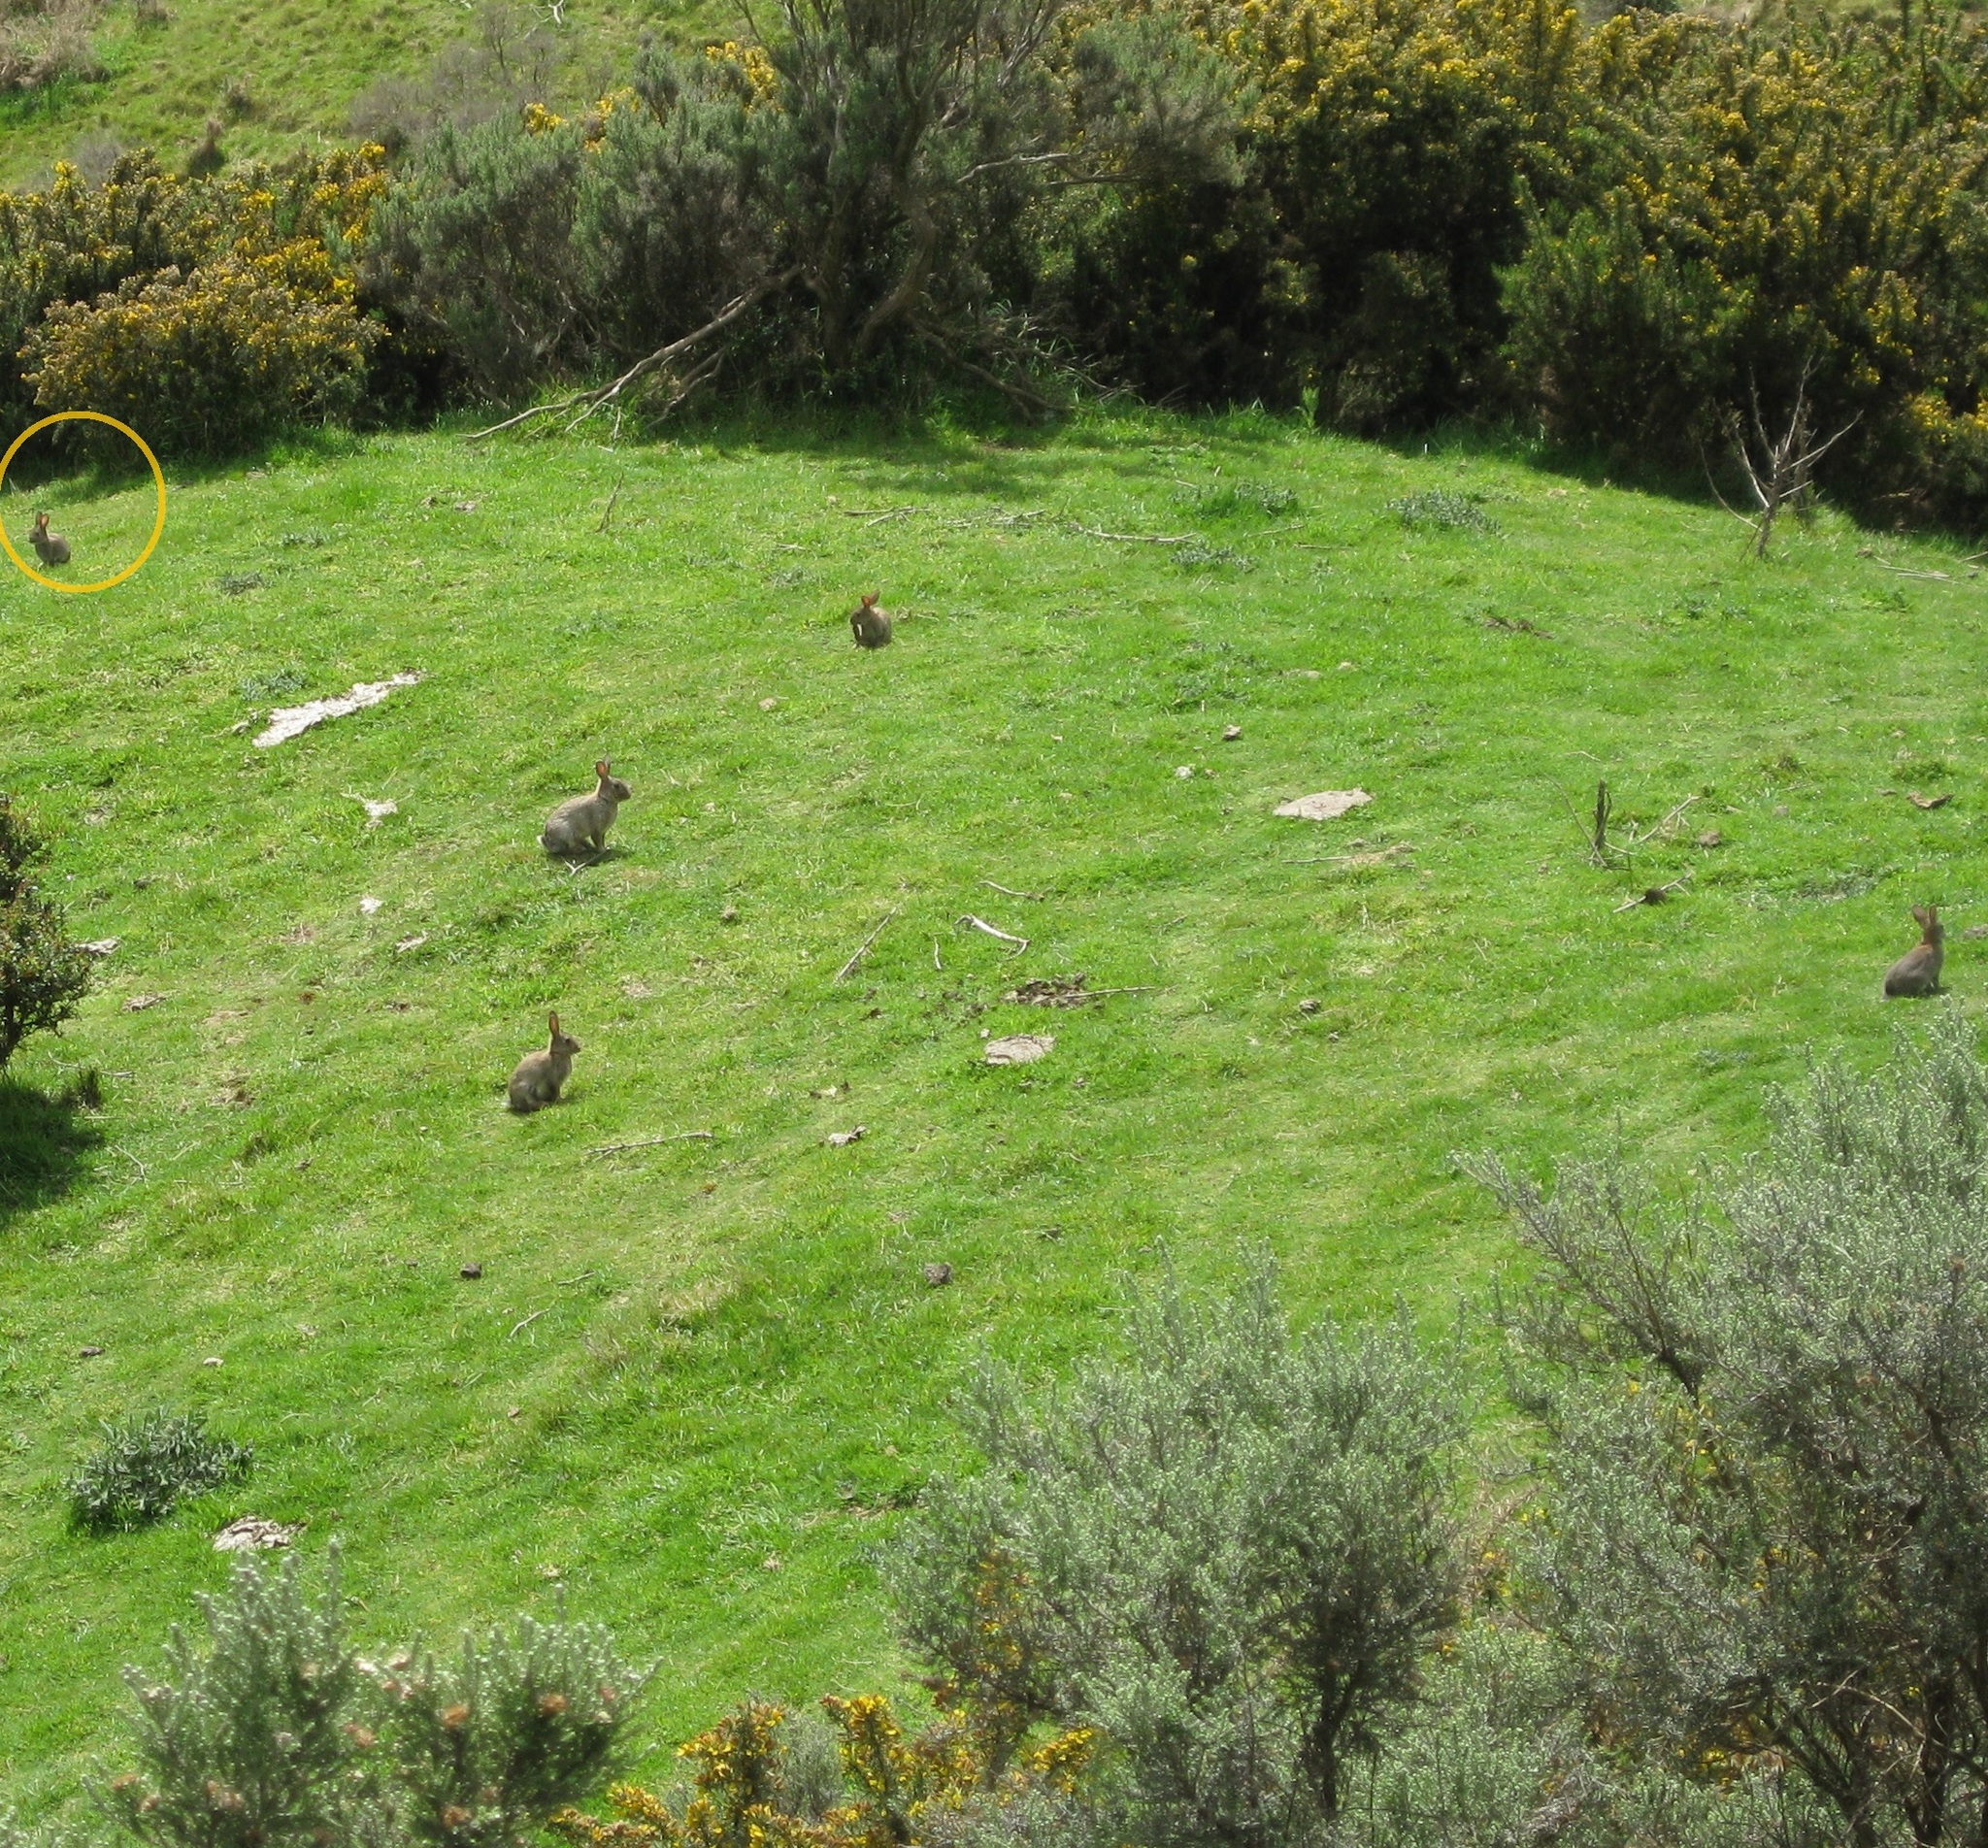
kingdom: Animalia
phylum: Chordata
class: Mammalia
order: Lagomorpha
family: Leporidae
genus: Oryctolagus
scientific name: Oryctolagus cuniculus
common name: European rabbit
